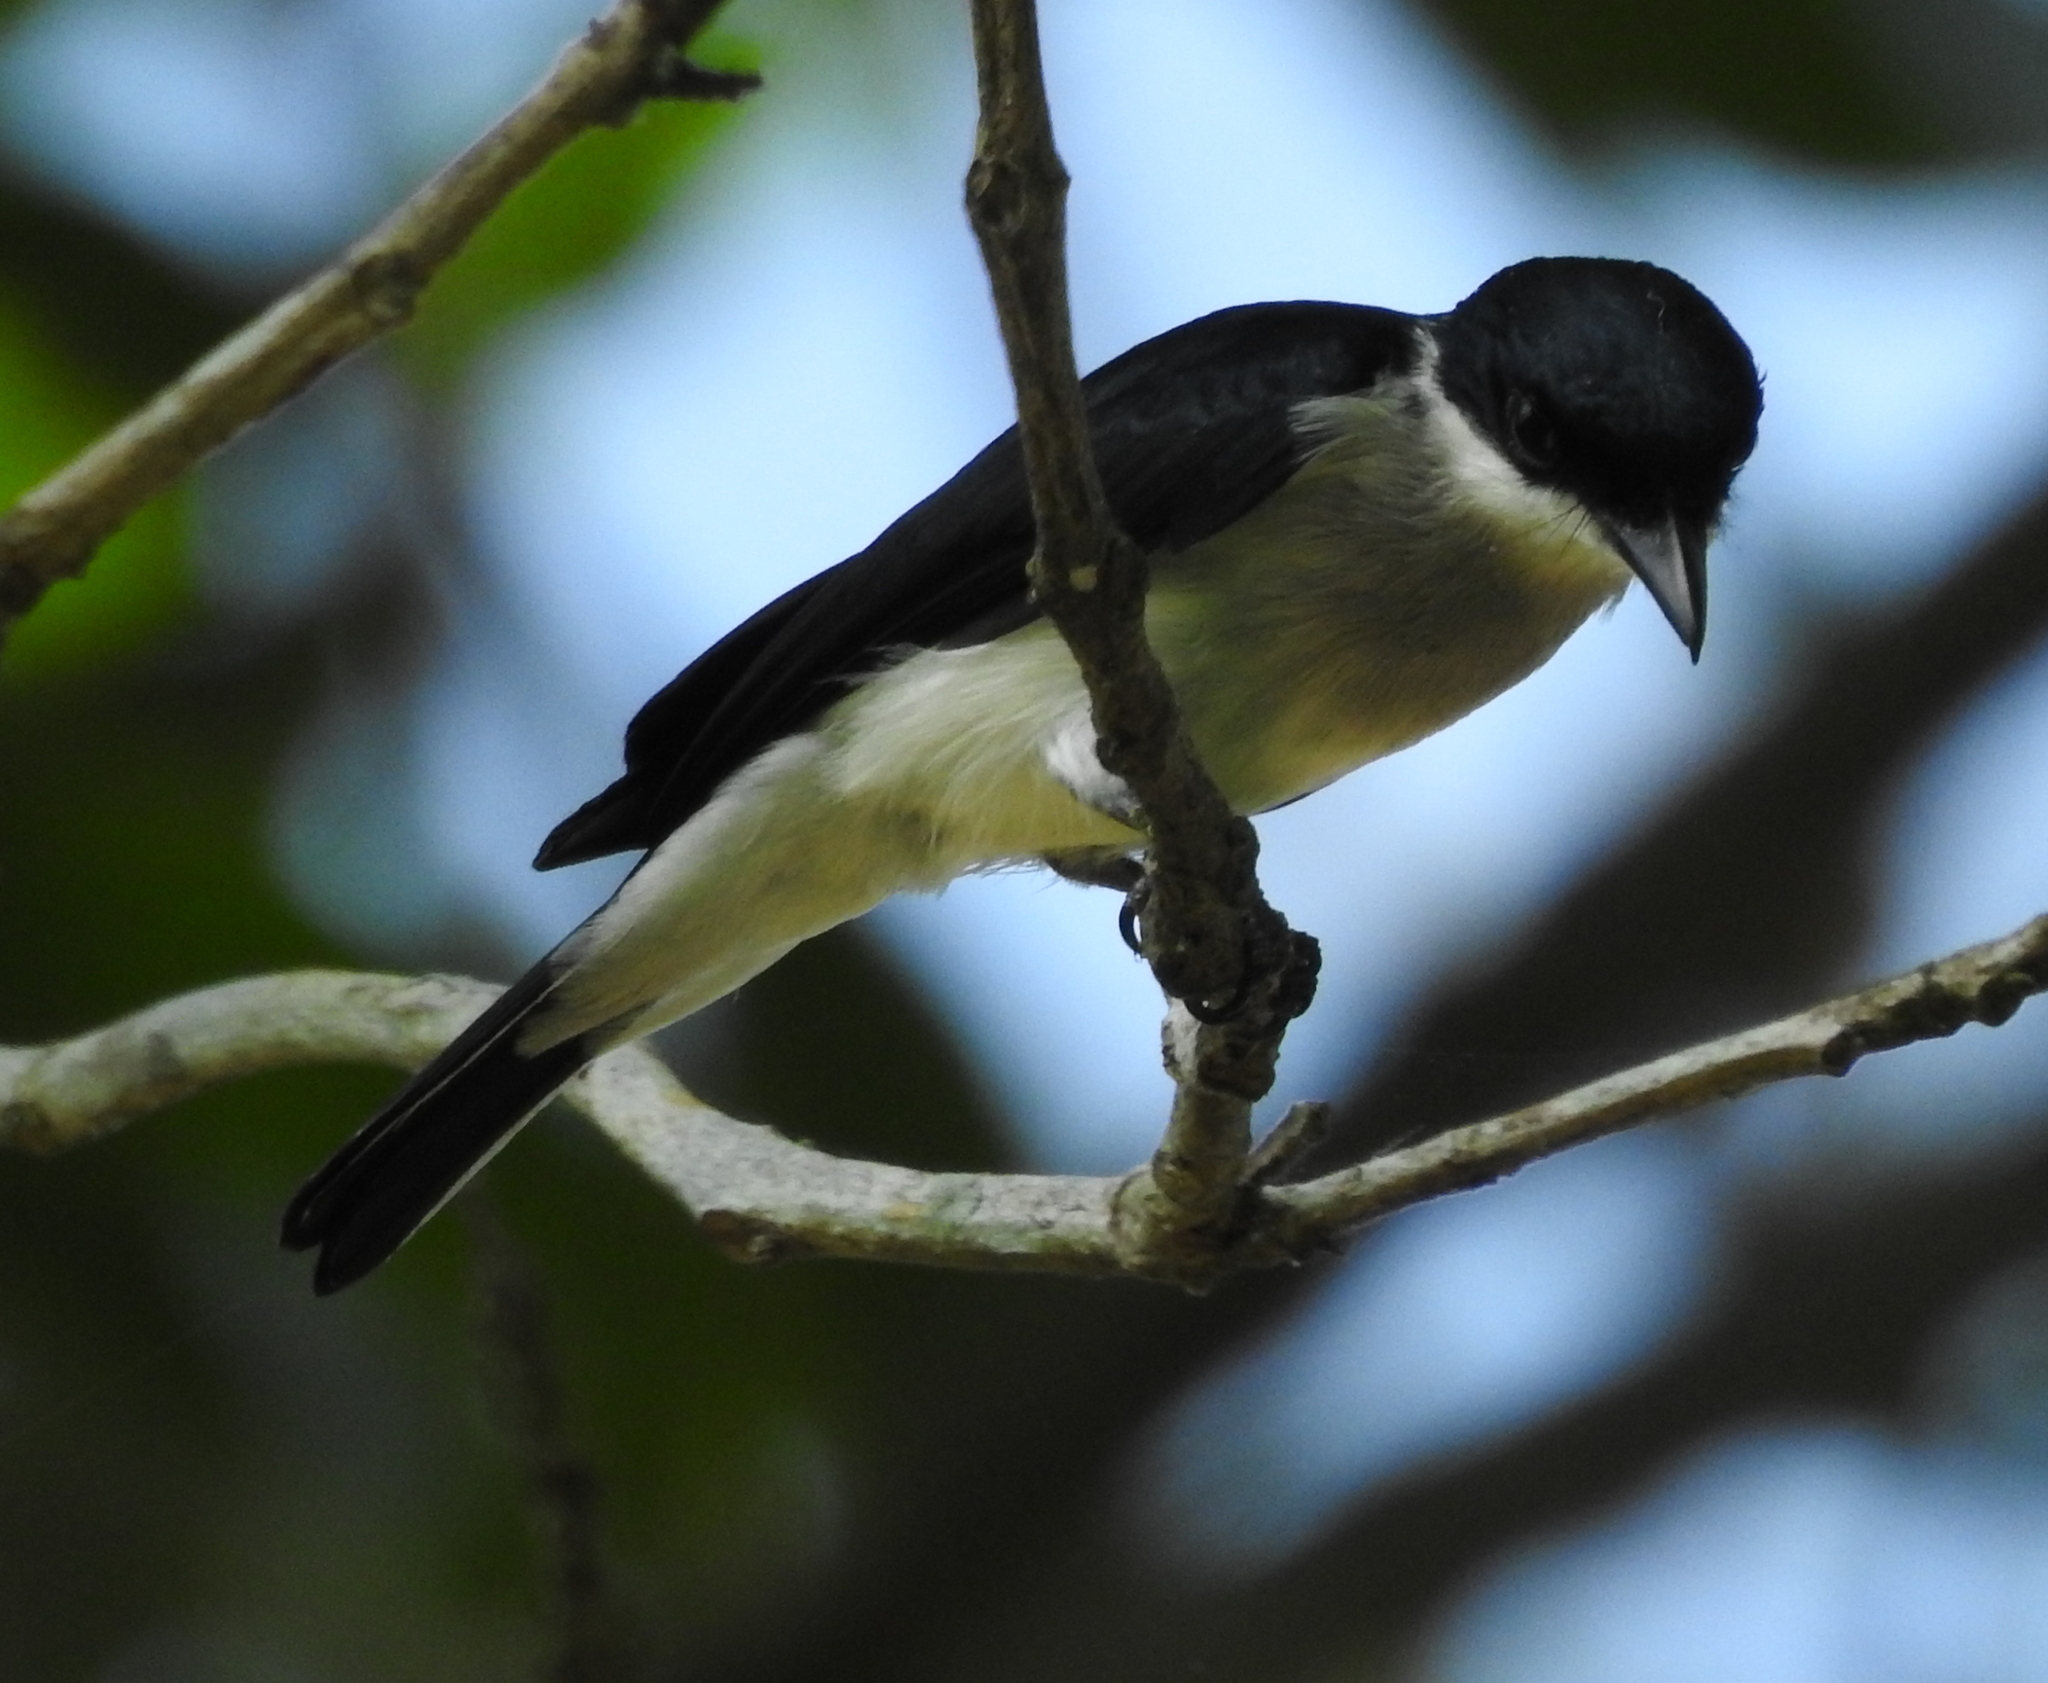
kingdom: Animalia
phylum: Chordata
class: Aves
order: Passeriformes
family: Tephrodornithidae
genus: Hemipus
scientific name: Hemipus hirundinaceus
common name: Black-winged flycatcher-shrike
